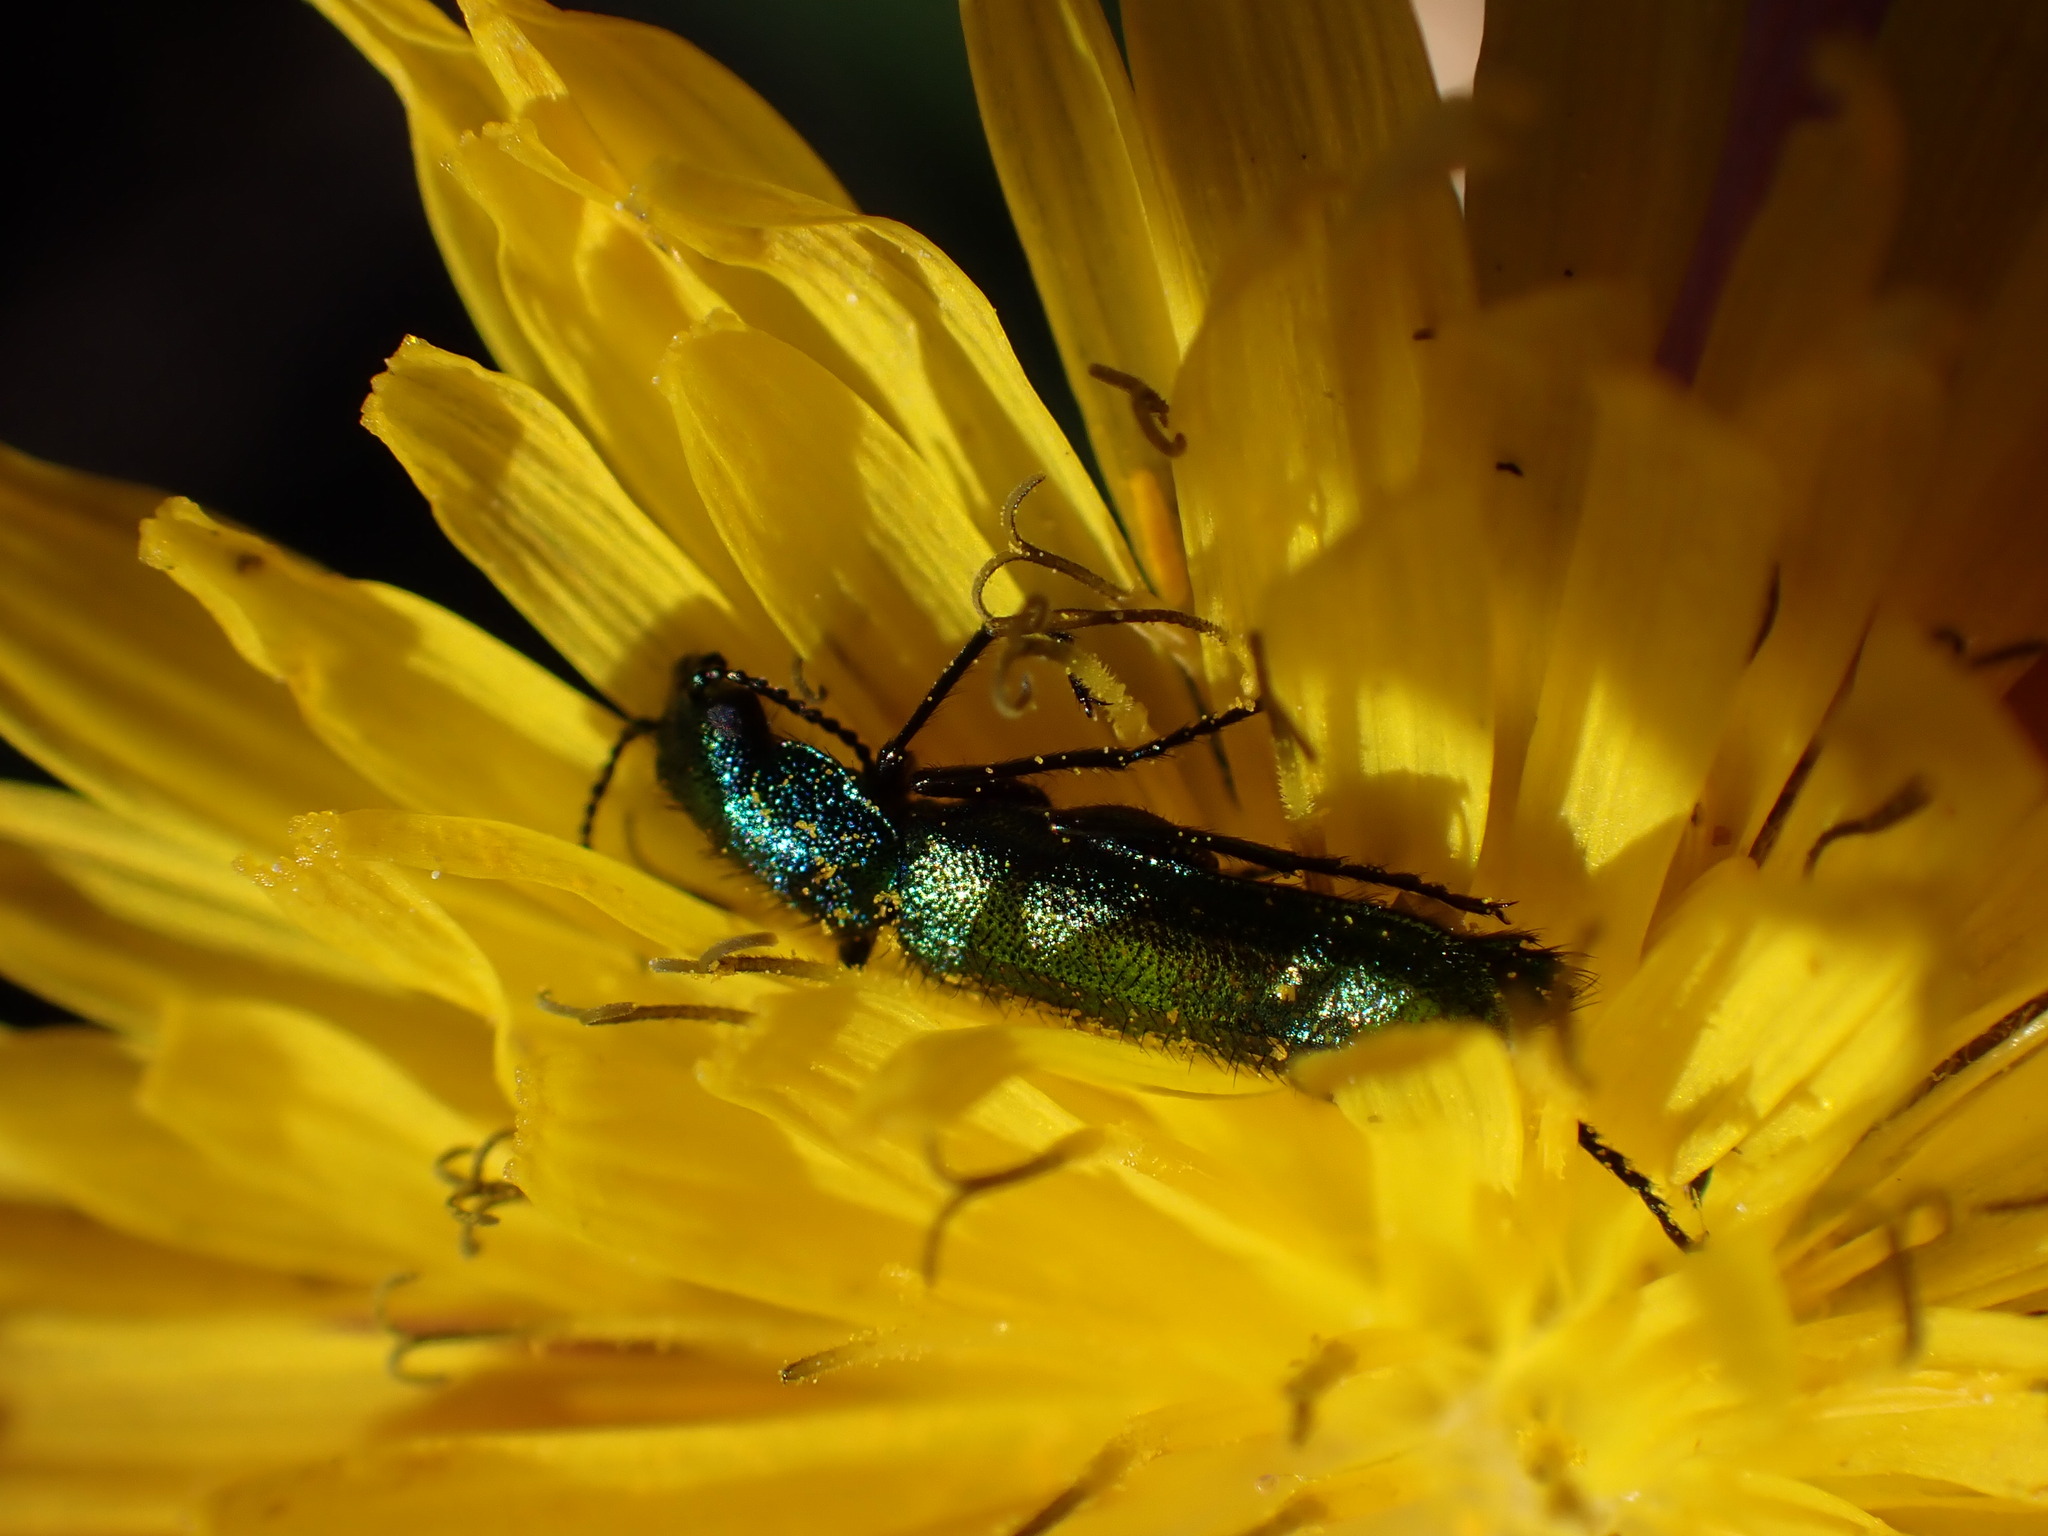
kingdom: Animalia
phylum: Arthropoda
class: Insecta
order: Coleoptera
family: Dasytidae
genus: Psilothrix
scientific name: Psilothrix viridicoerulea
